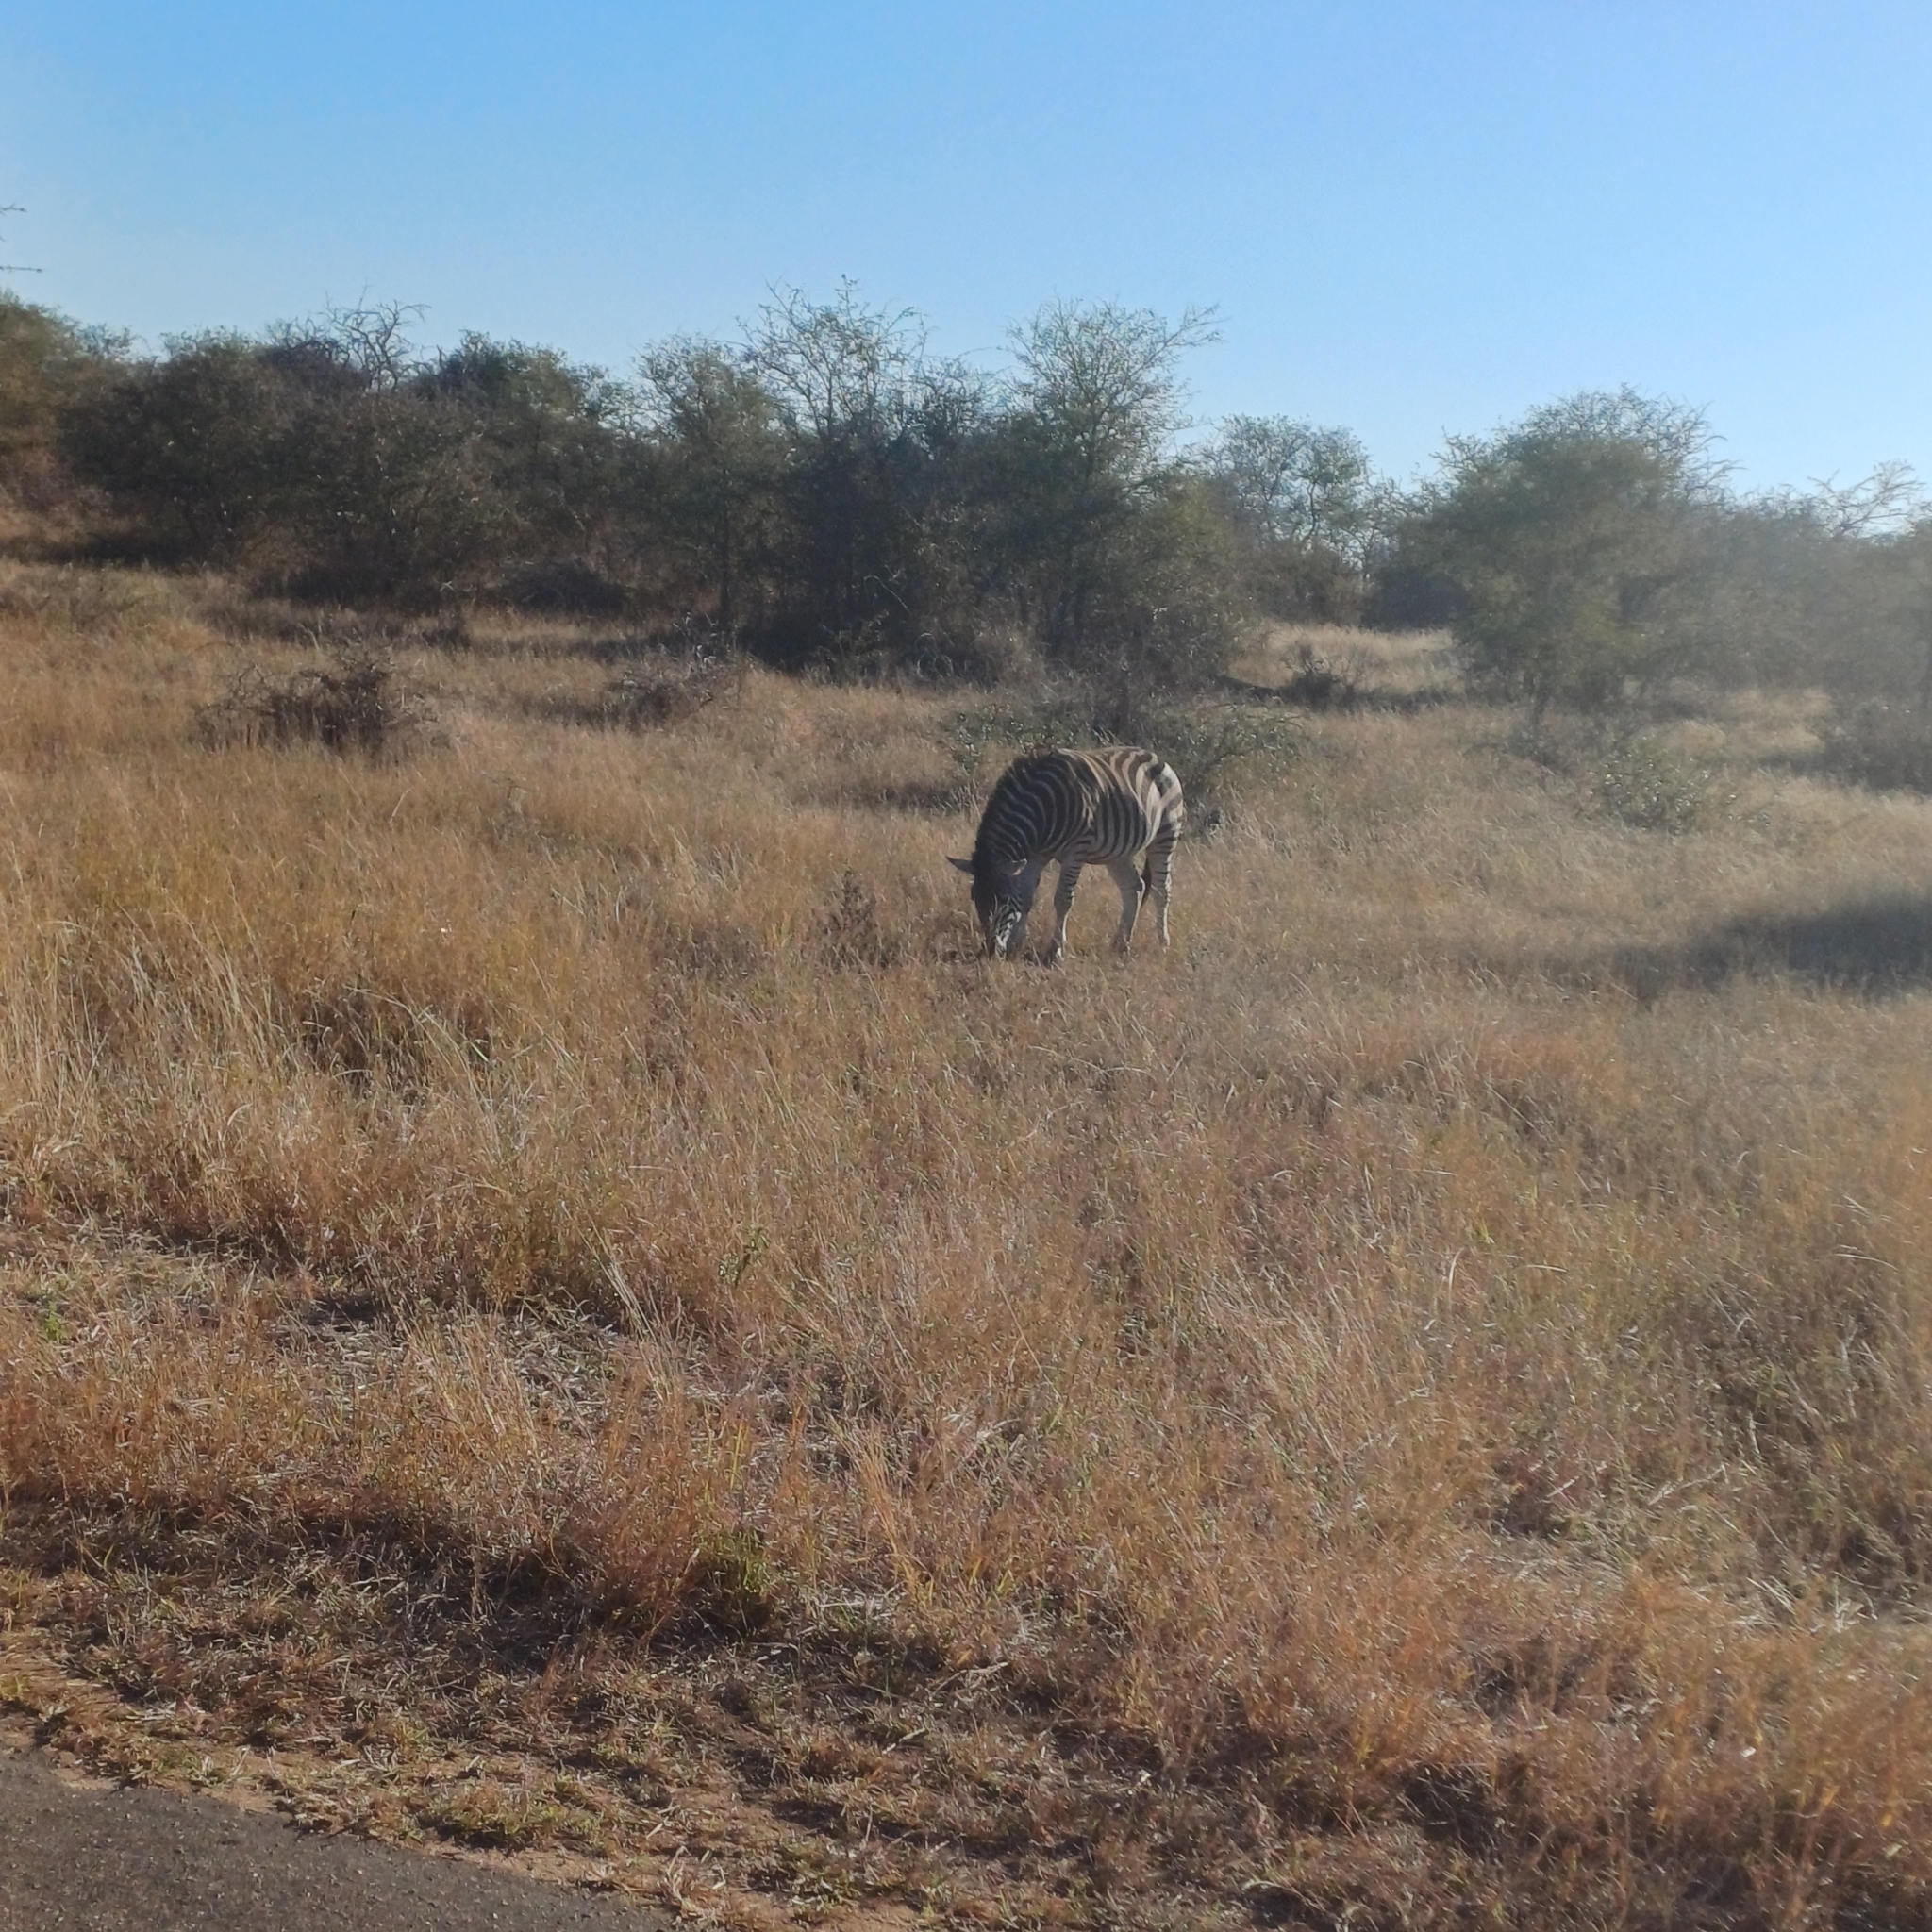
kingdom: Animalia
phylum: Chordata
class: Mammalia
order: Perissodactyla
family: Equidae
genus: Equus
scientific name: Equus quagga
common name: Plains zebra
